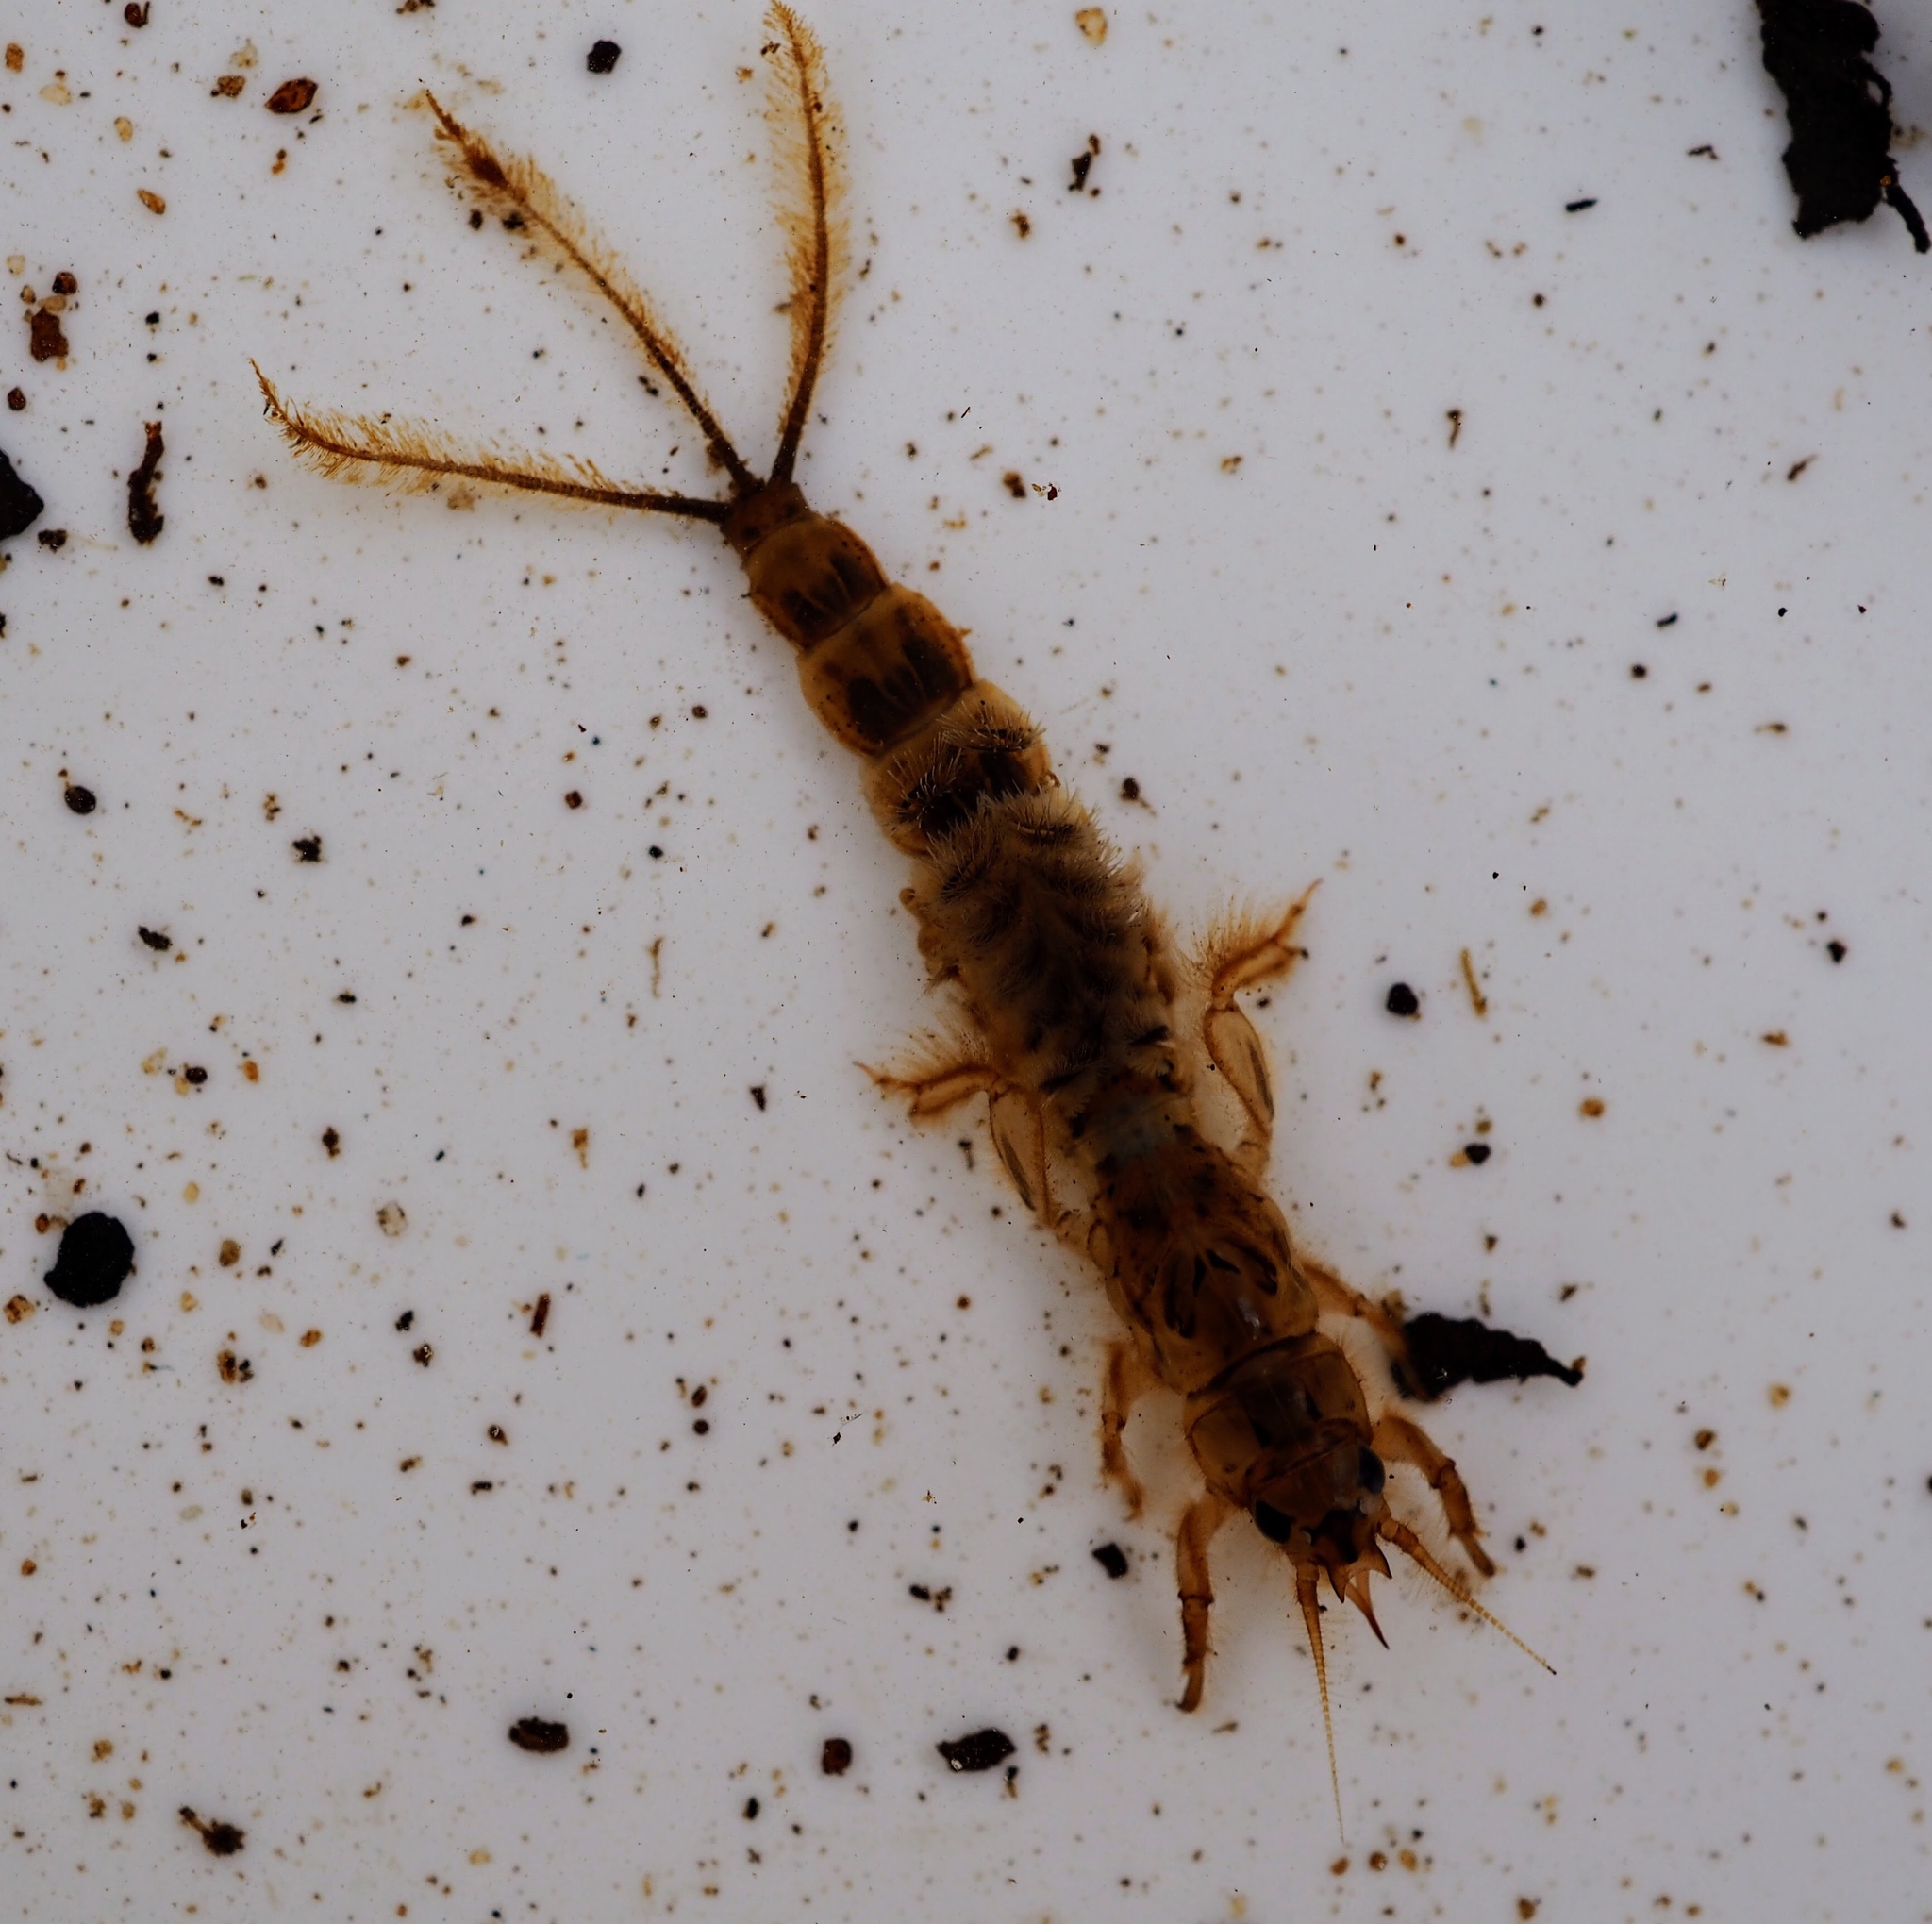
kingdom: Animalia
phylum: Arthropoda
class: Insecta
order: Ephemeroptera
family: Ephemeridae
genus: Ephemera
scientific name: Ephemera danica
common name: Green dun
